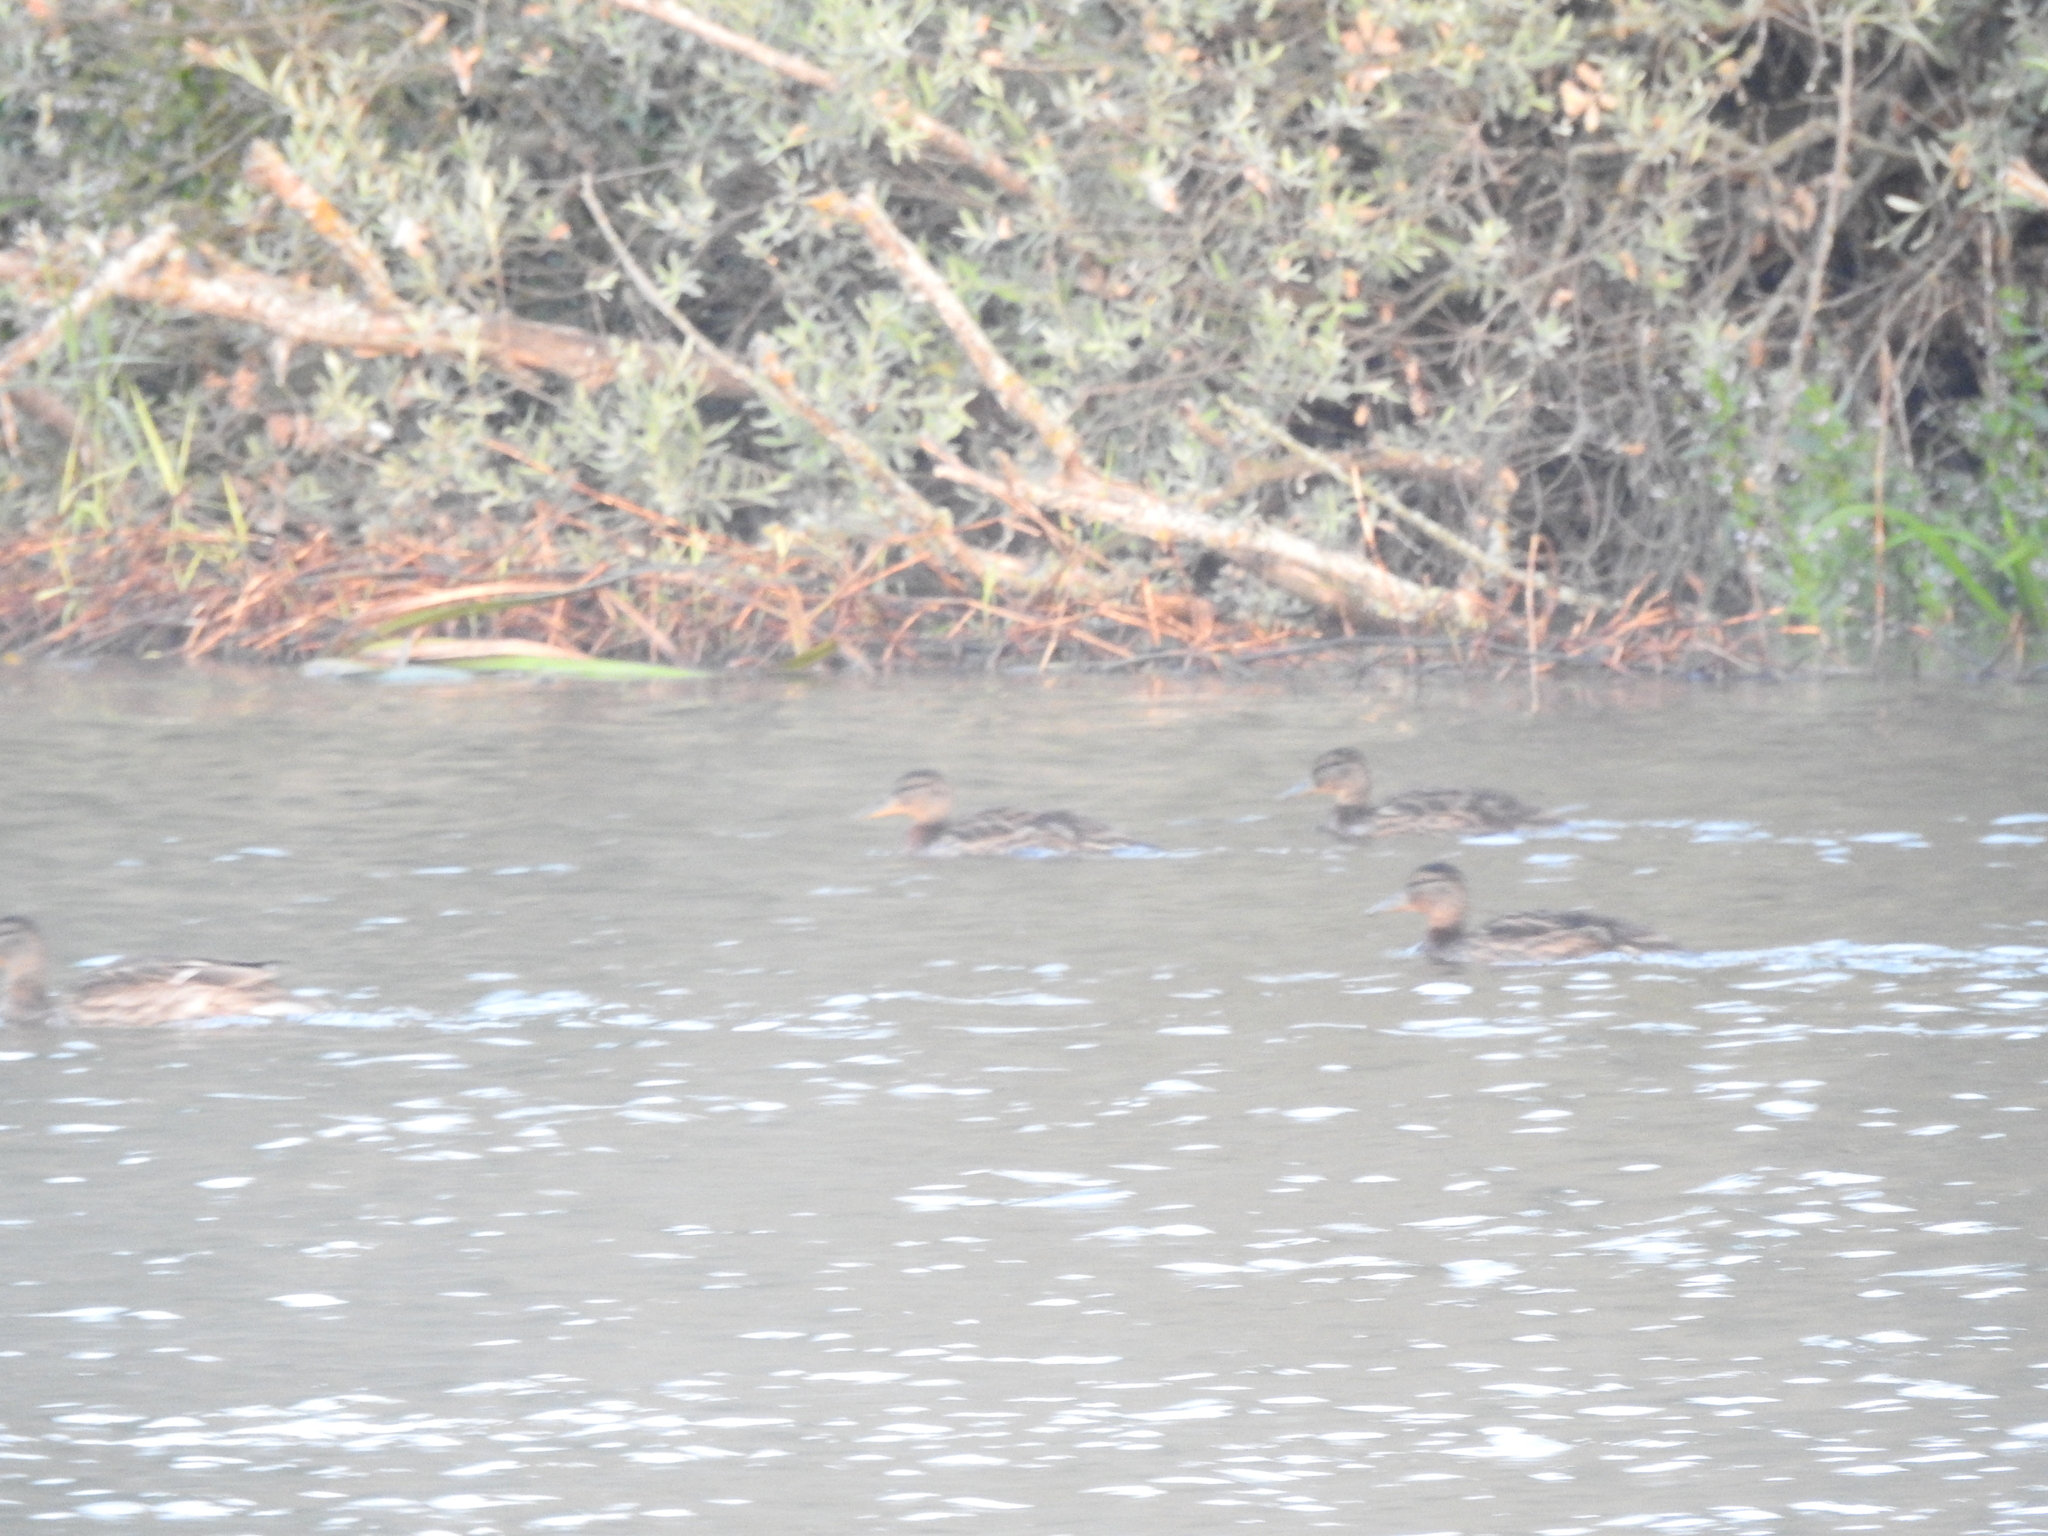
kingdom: Animalia
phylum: Chordata
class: Aves
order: Anseriformes
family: Anatidae
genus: Anas
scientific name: Anas platyrhynchos
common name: Mallard
